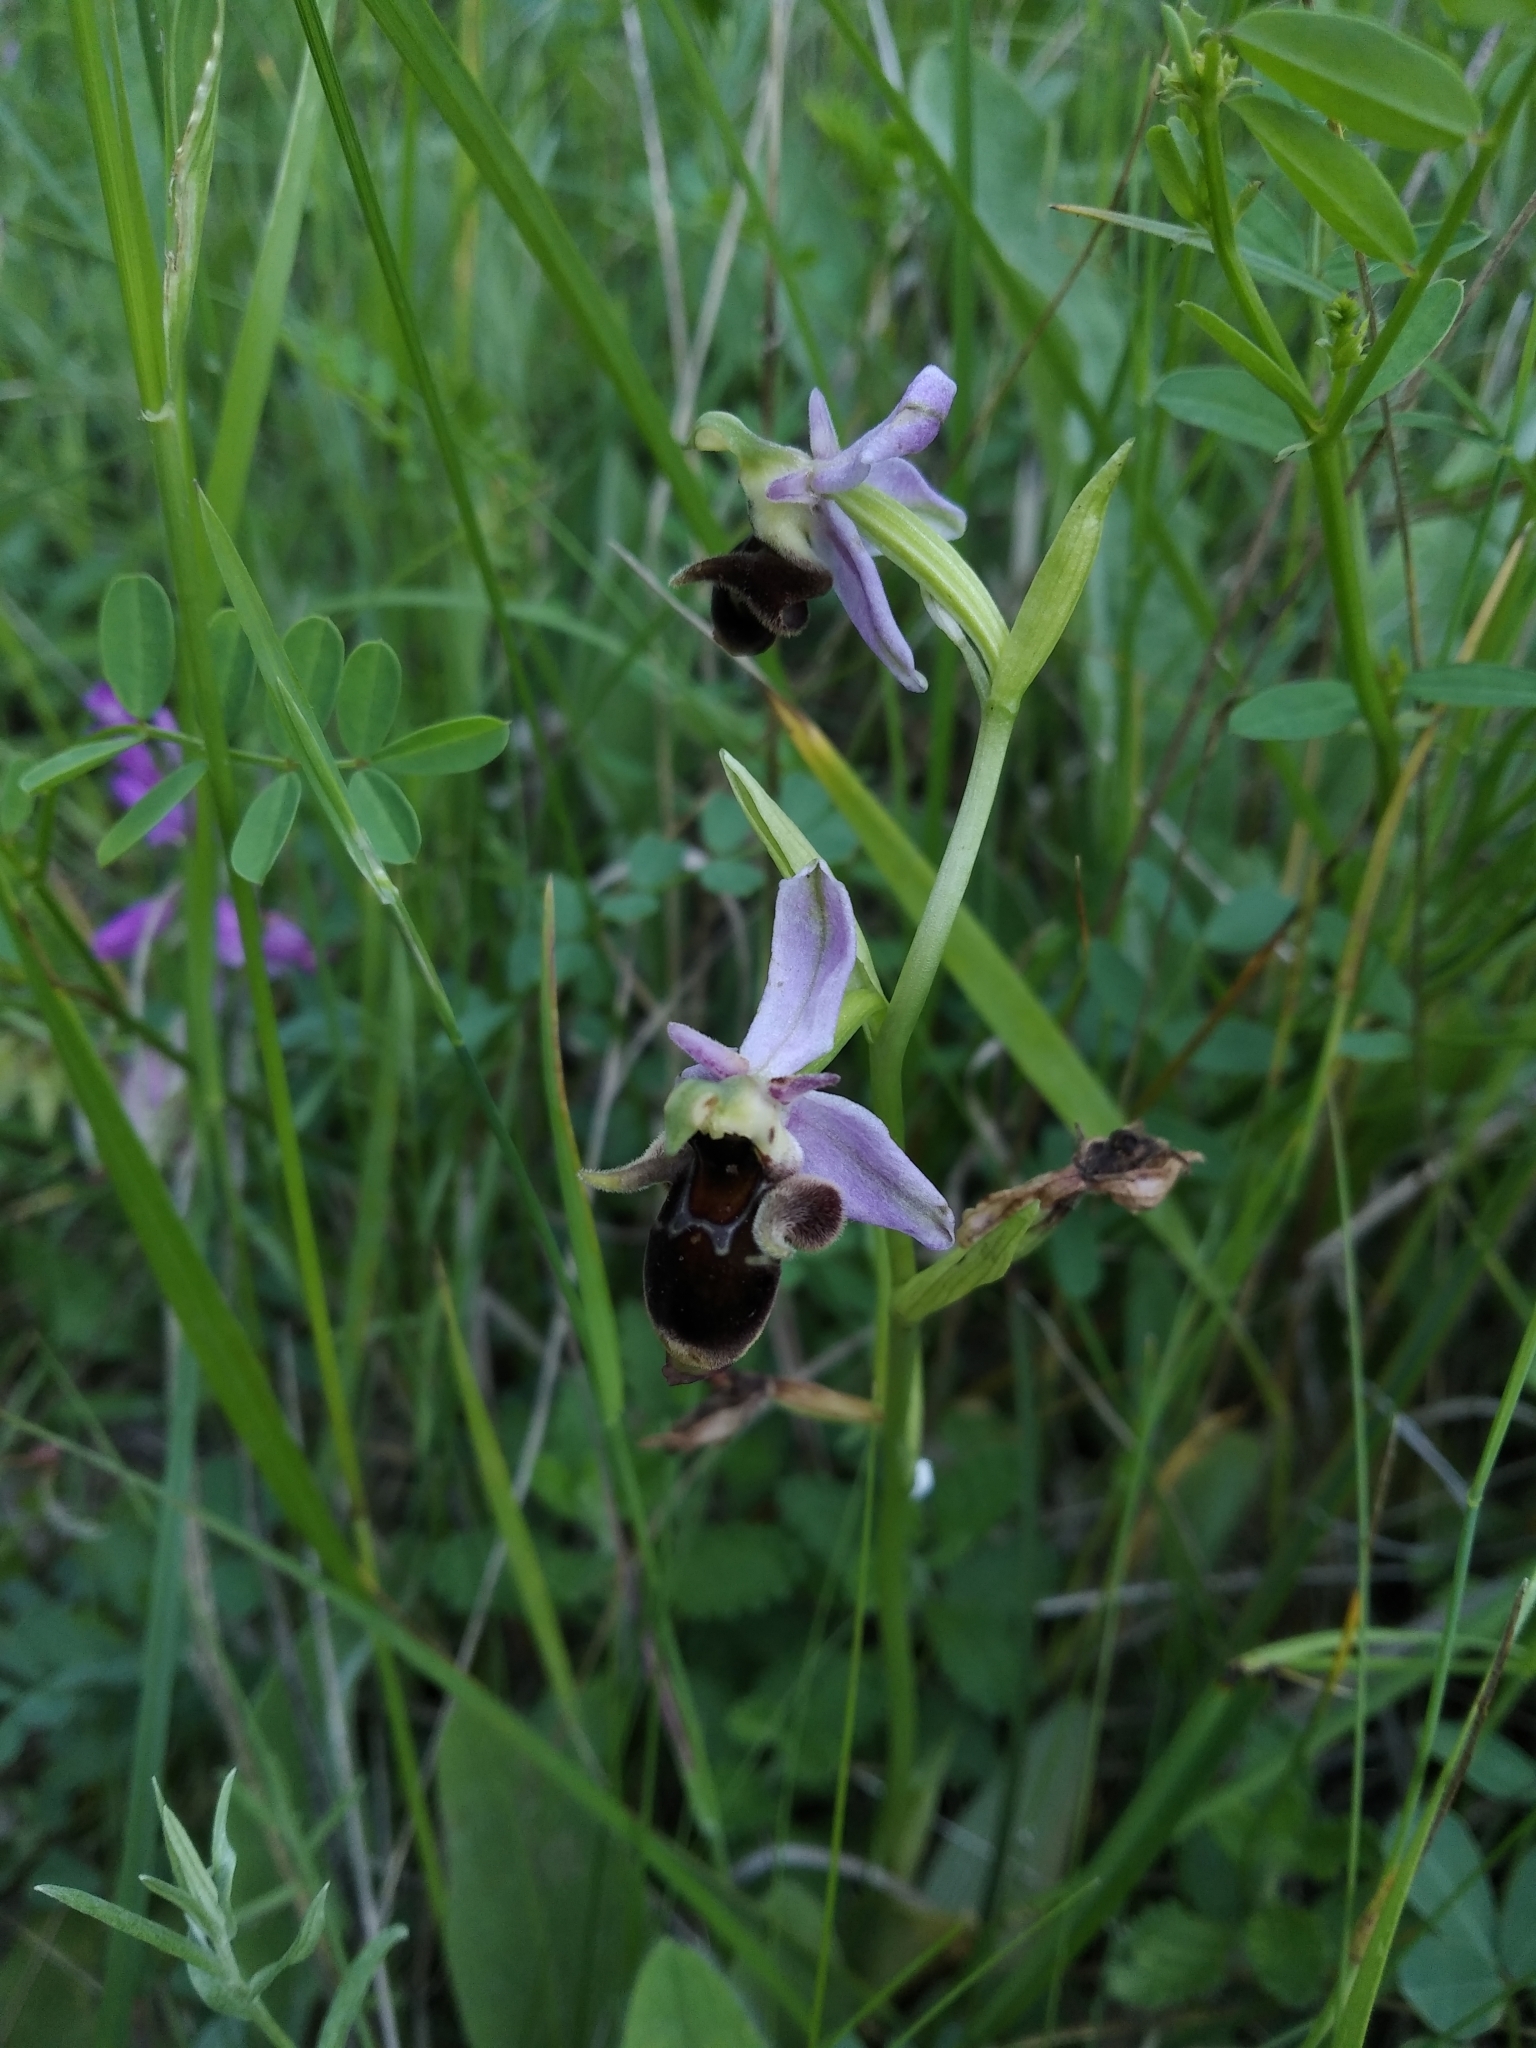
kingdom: Plantae
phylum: Tracheophyta
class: Liliopsida
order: Asparagales
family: Orchidaceae
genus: Ophrys
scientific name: Ophrys
